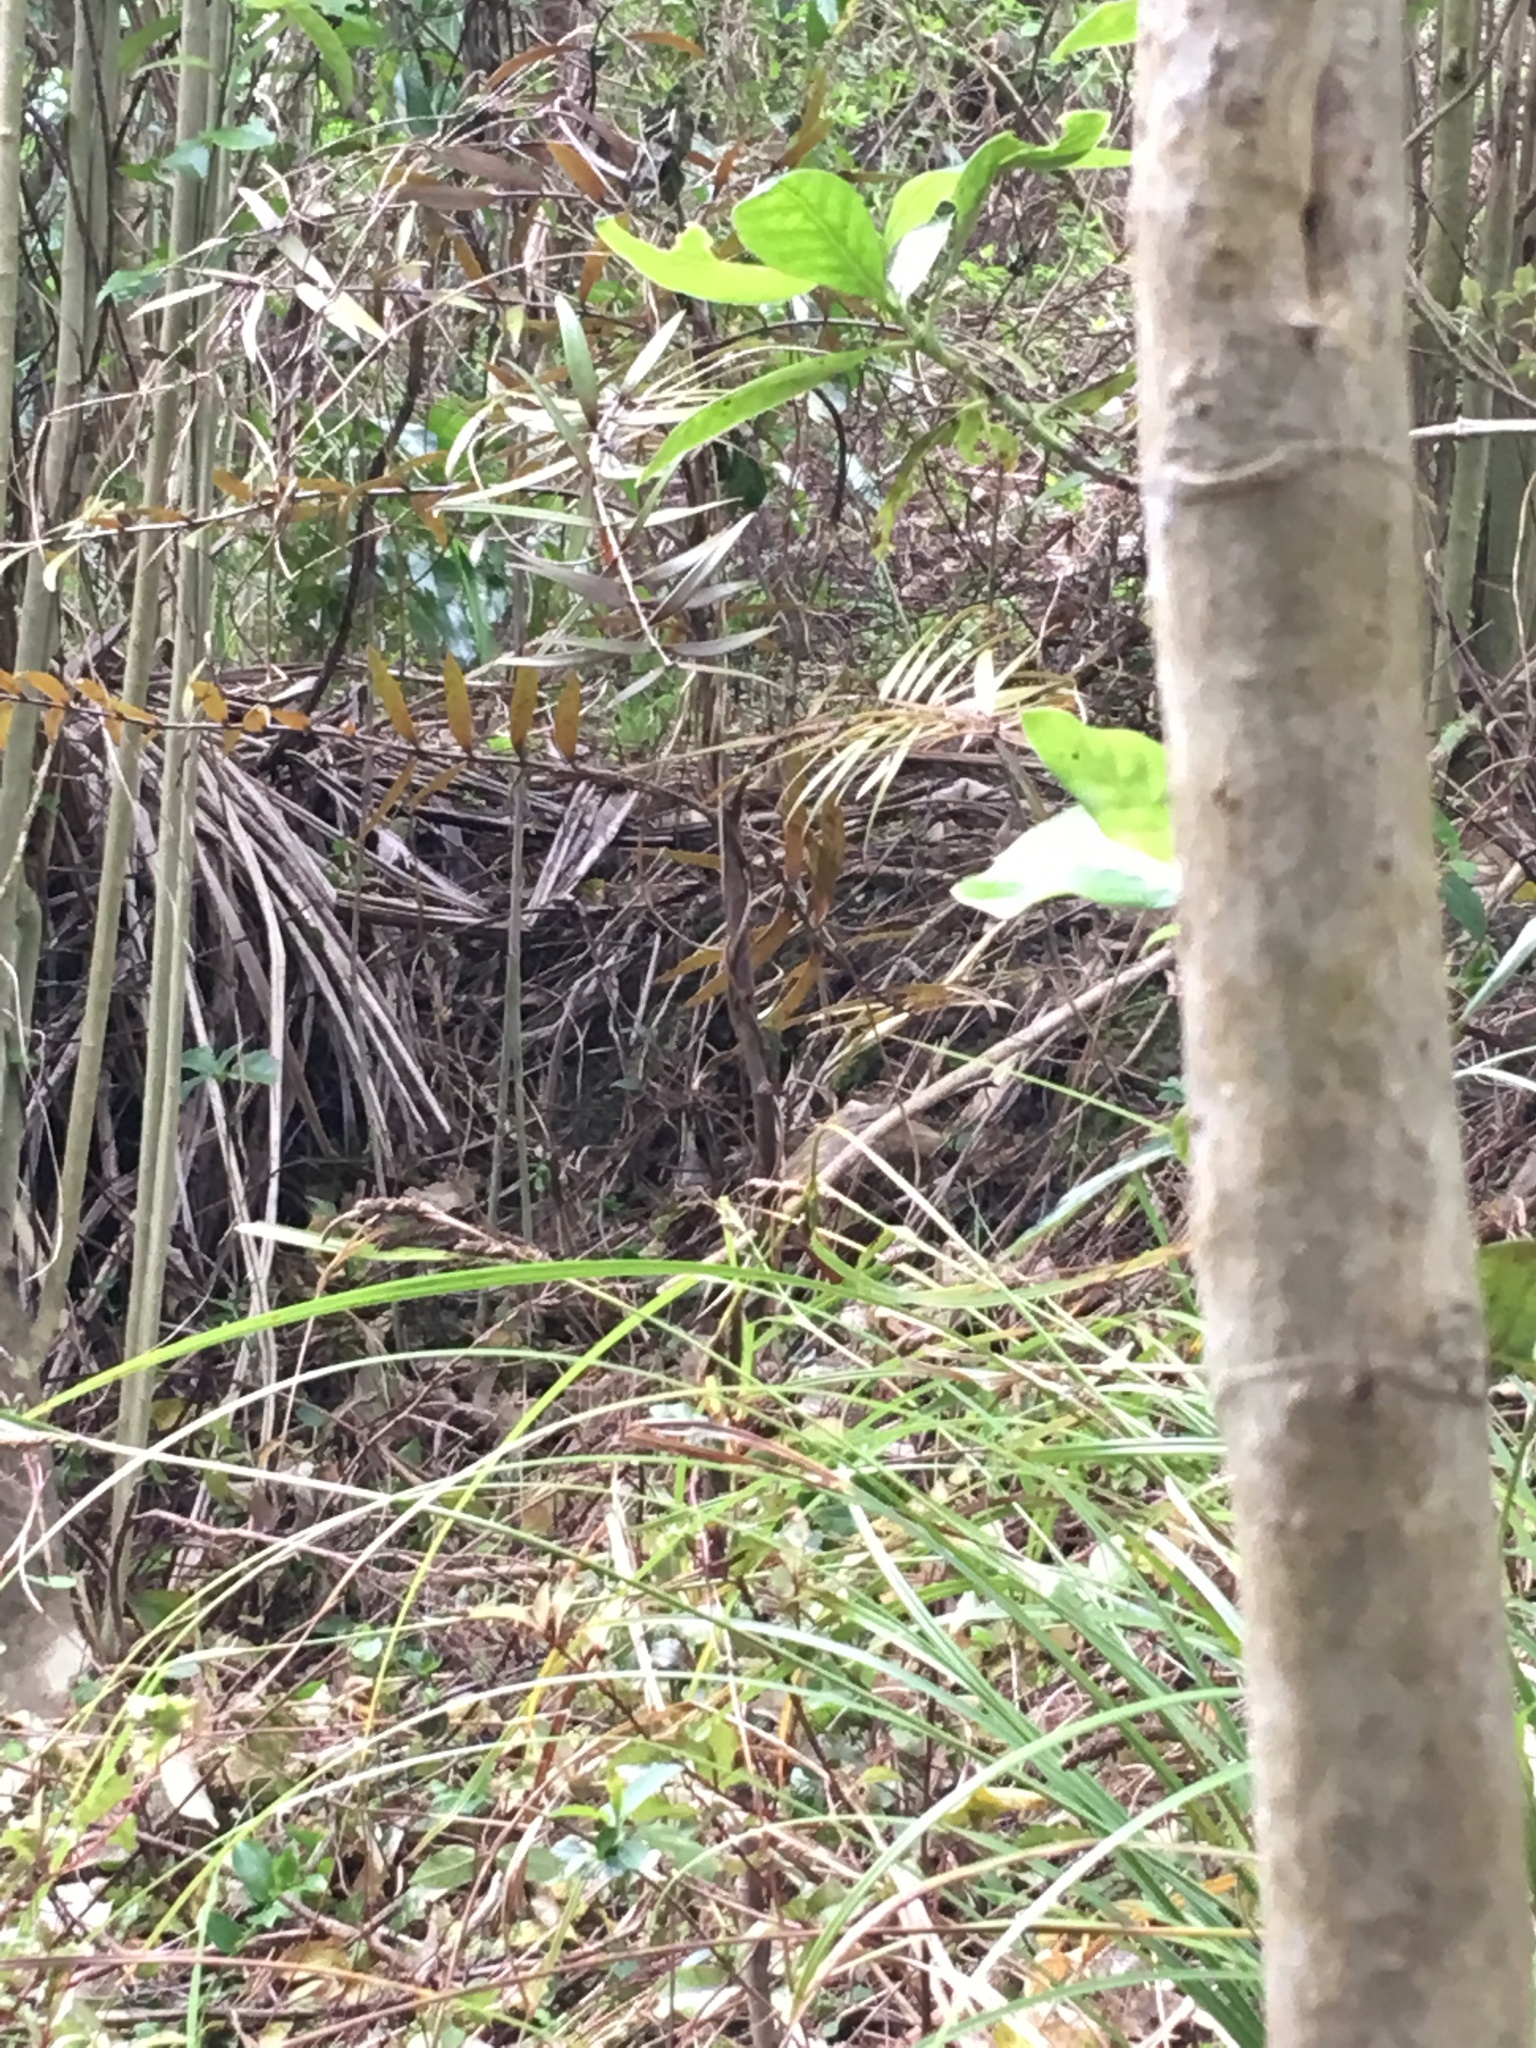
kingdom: Plantae
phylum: Tracheophyta
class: Pinopsida
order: Pinales
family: Araucariaceae
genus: Agathis
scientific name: Agathis australis
